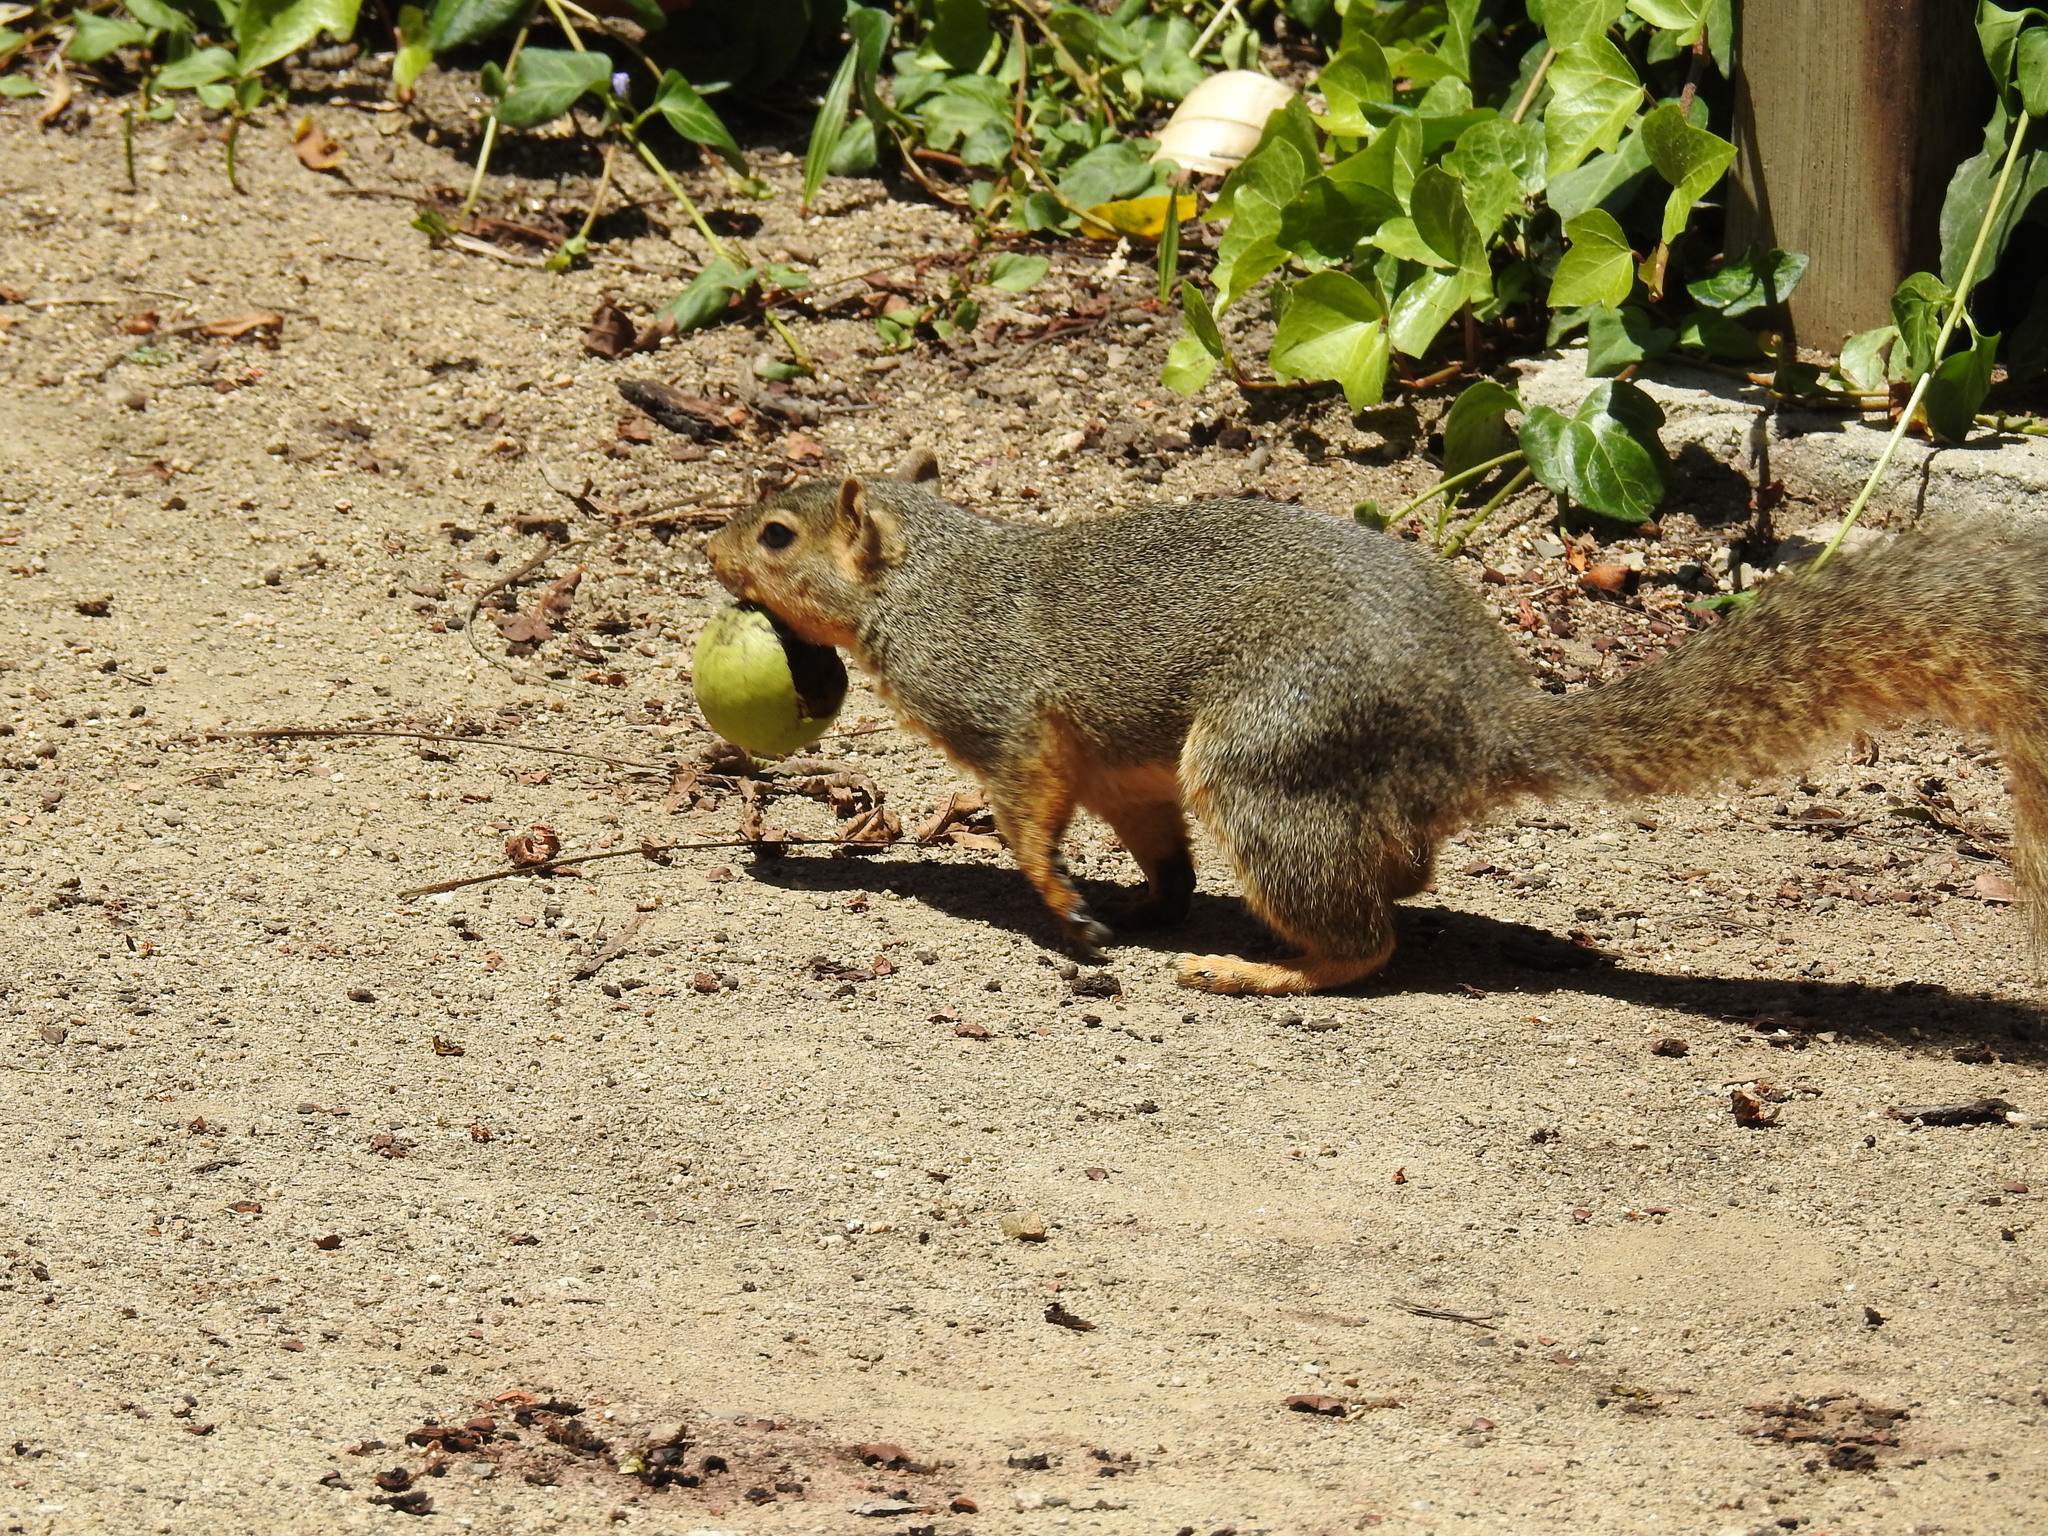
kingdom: Animalia
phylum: Chordata
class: Mammalia
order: Rodentia
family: Sciuridae
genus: Sciurus
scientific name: Sciurus niger
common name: Fox squirrel
